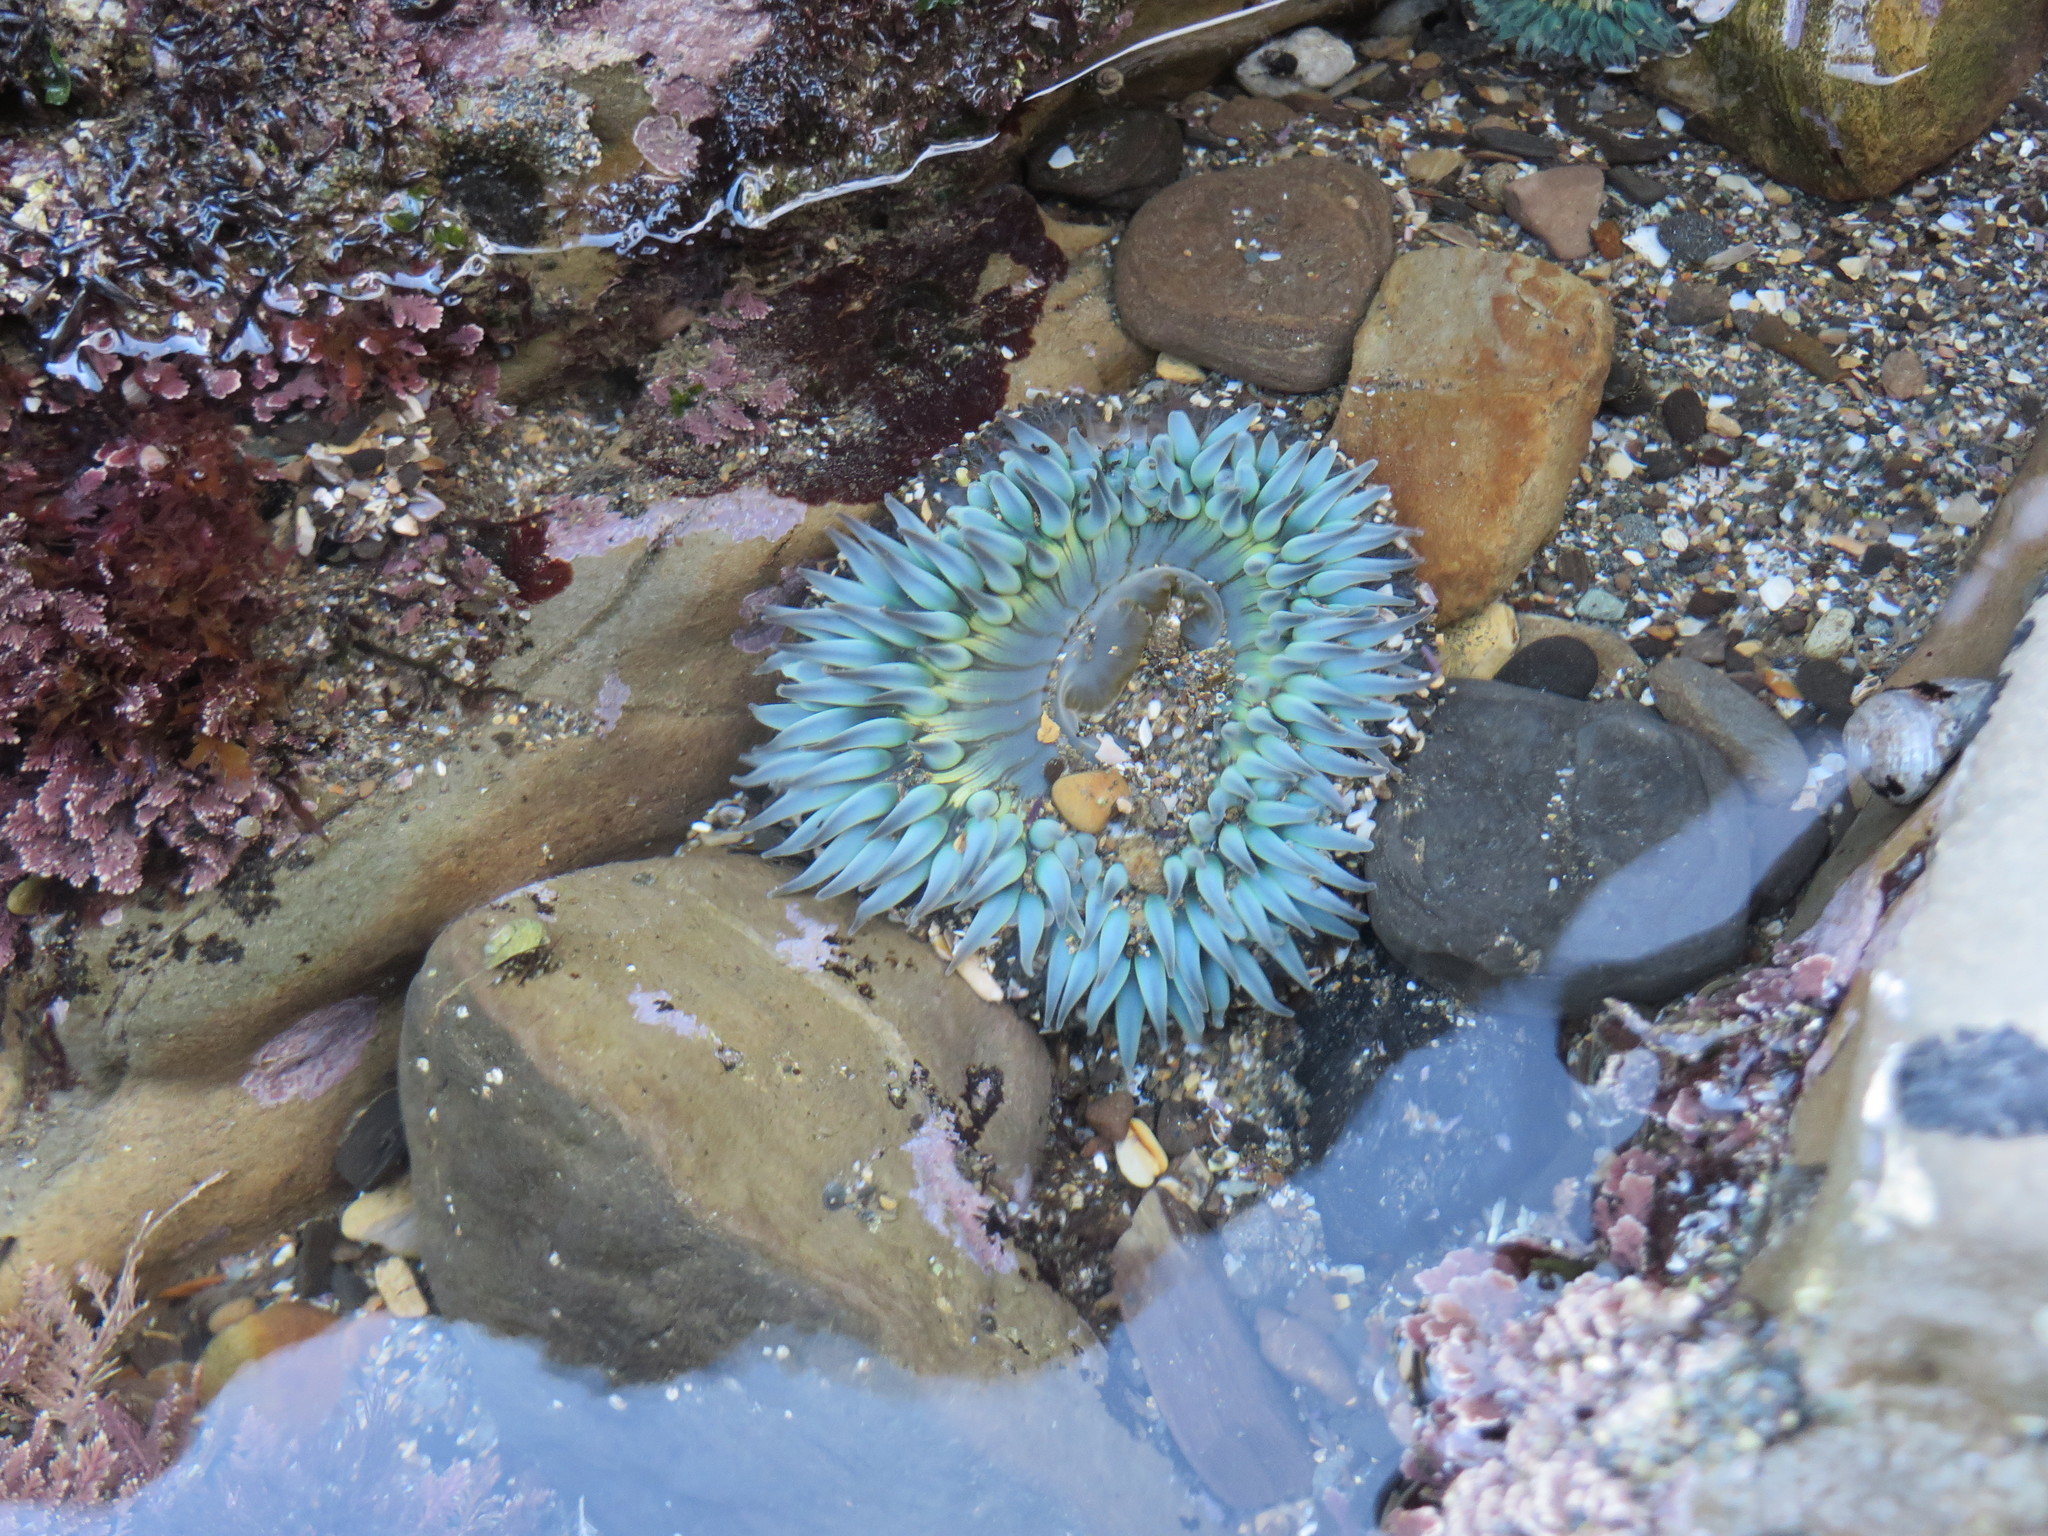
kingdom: Animalia
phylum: Cnidaria
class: Anthozoa
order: Actiniaria
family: Actiniidae
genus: Anthopleura
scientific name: Anthopleura sola
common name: Sun anemone
